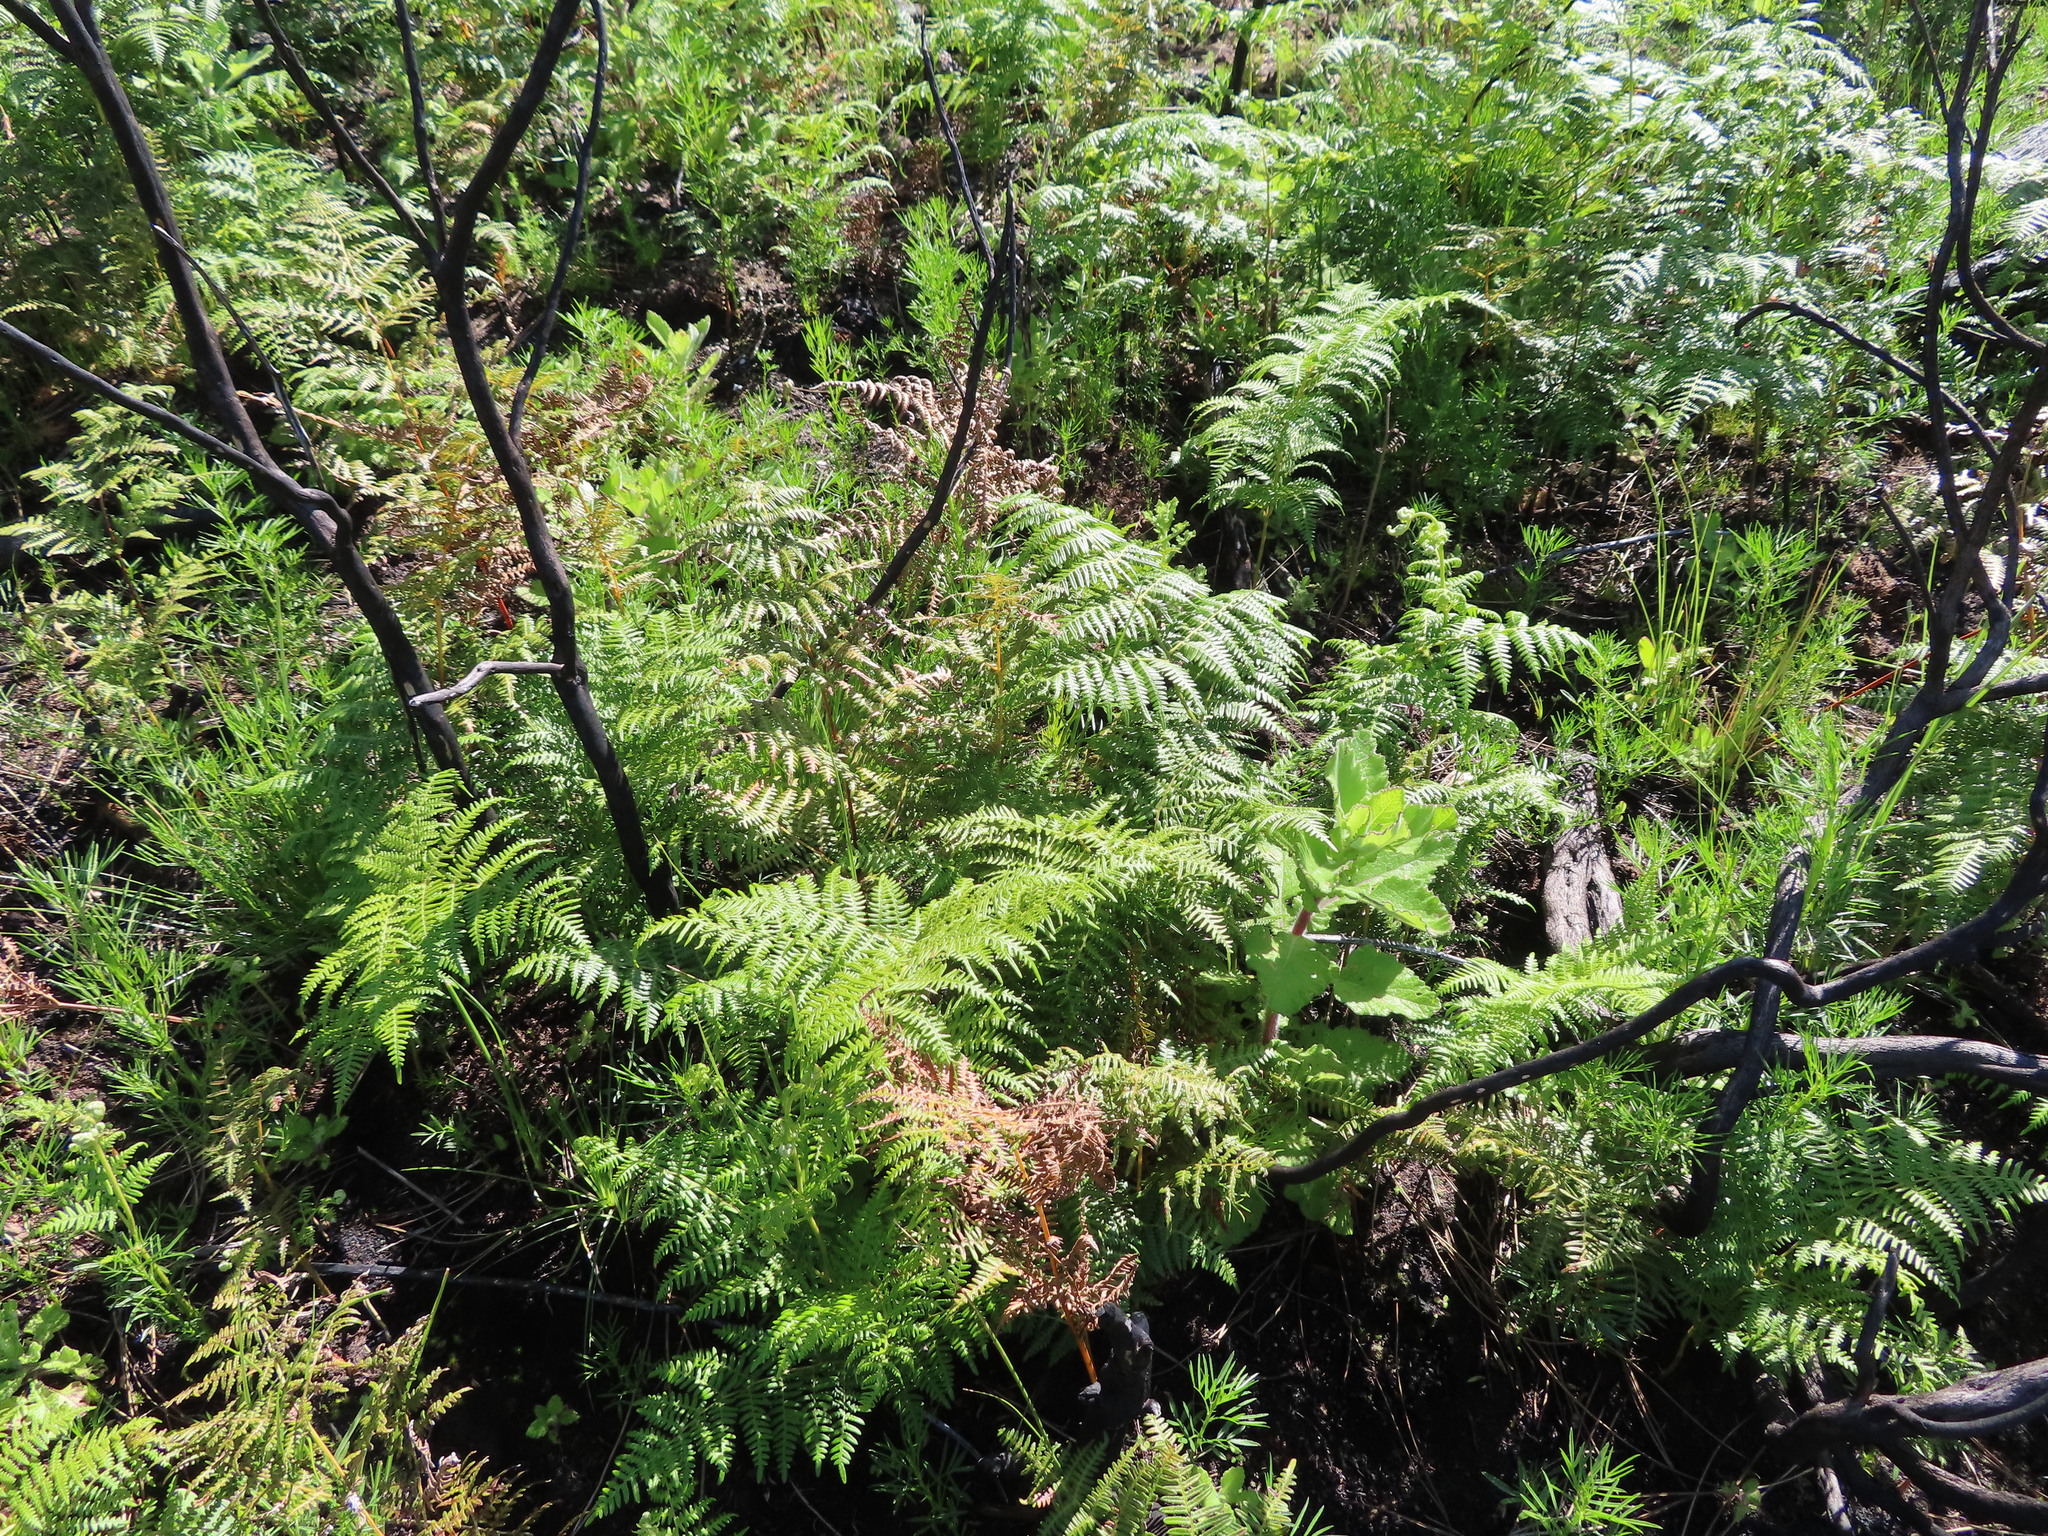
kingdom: Plantae
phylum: Tracheophyta
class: Polypodiopsida
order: Polypodiales
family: Dennstaedtiaceae
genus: Pteridium
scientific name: Pteridium aquilinum
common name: Bracken
